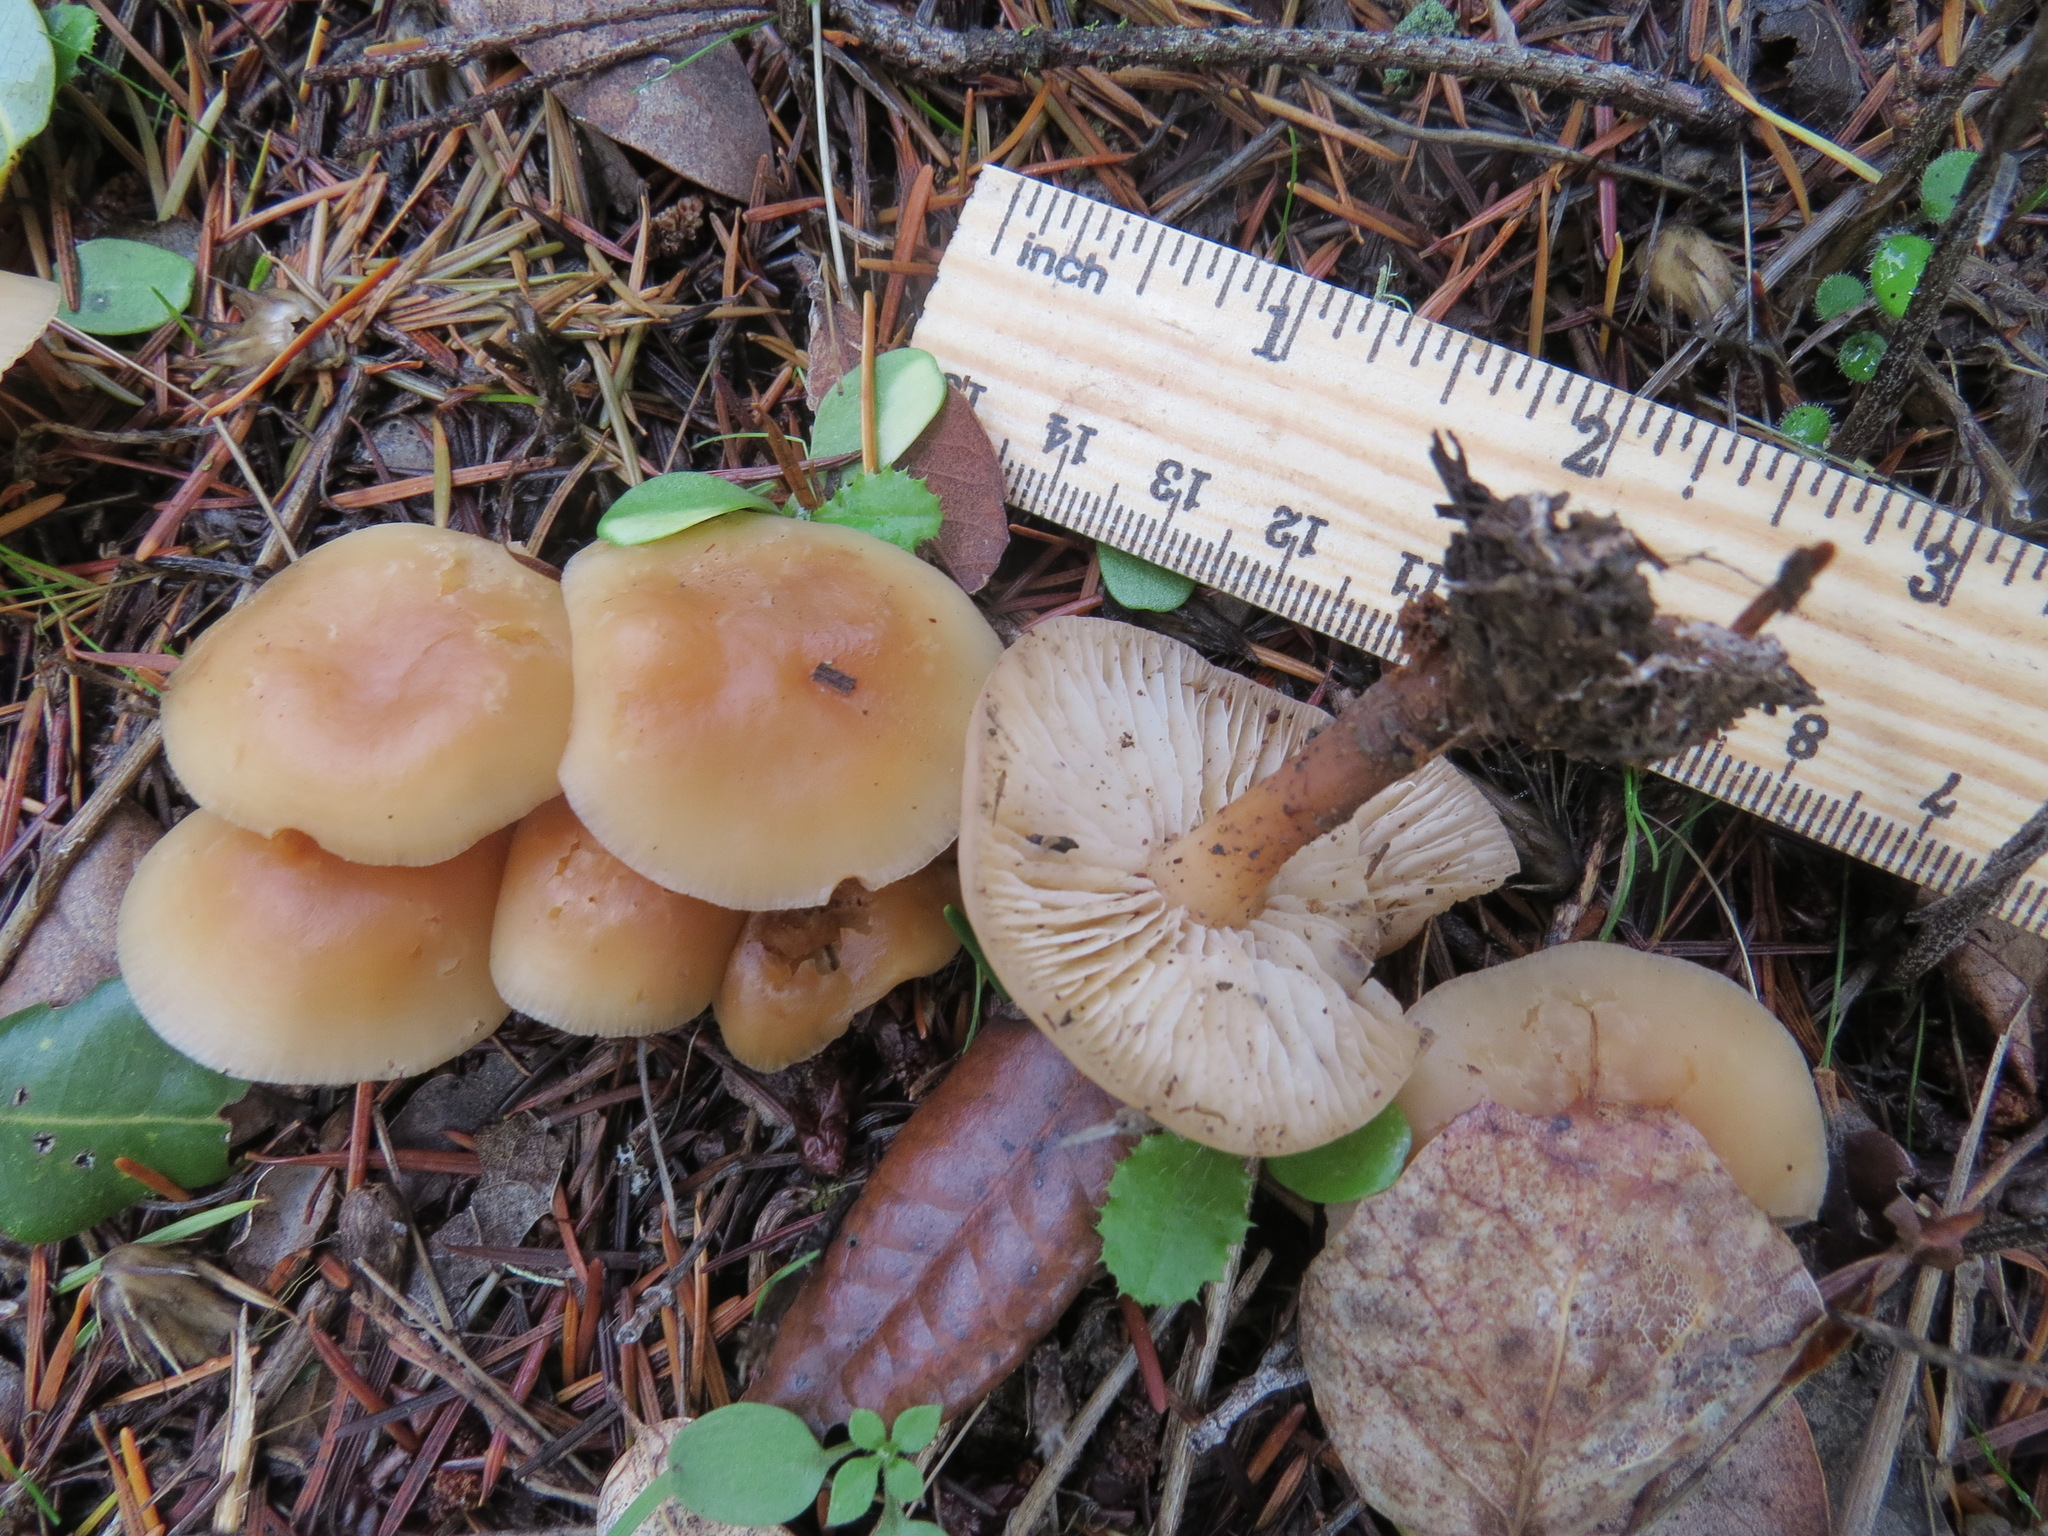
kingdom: Fungi
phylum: Basidiomycota
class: Agaricomycetes
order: Agaricales
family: Omphalotaceae
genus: Gymnopus
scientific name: Gymnopus dryophilus
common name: Penny top
